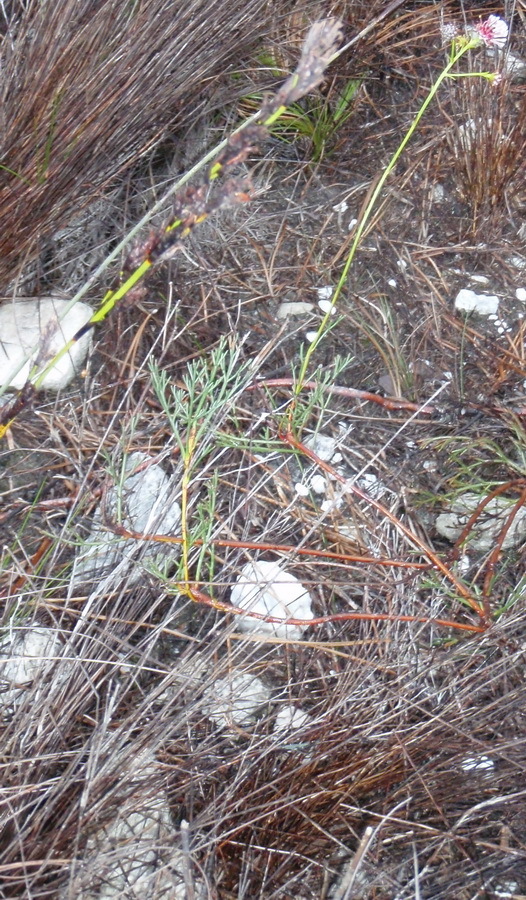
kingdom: Plantae
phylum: Tracheophyta
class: Magnoliopsida
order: Proteales
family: Proteaceae
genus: Serruria
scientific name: Serruria elongata
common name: Long-stalk spiderhead
